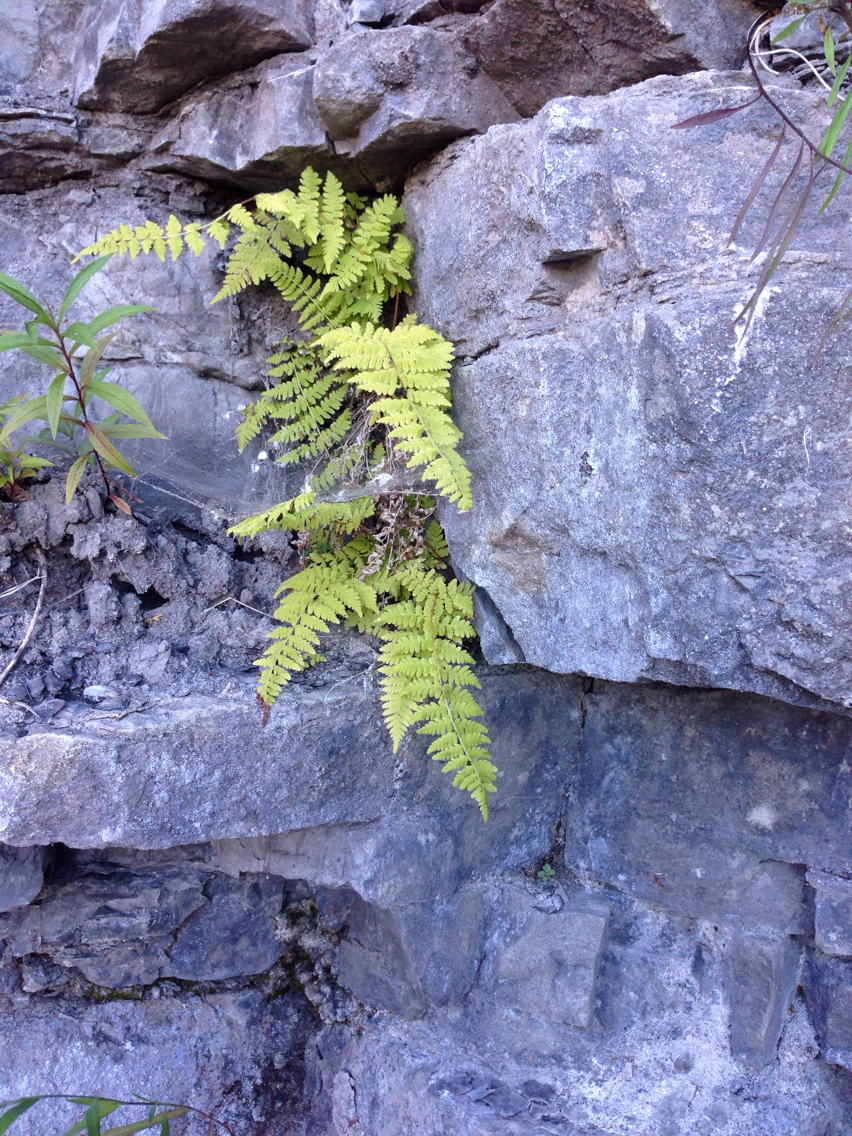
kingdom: Plantae
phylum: Tracheophyta
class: Polypodiopsida
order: Polypodiales
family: Cystopteridaceae
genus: Cystopteris
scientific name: Cystopteris bulbifera
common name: Bulblet bladder fern
